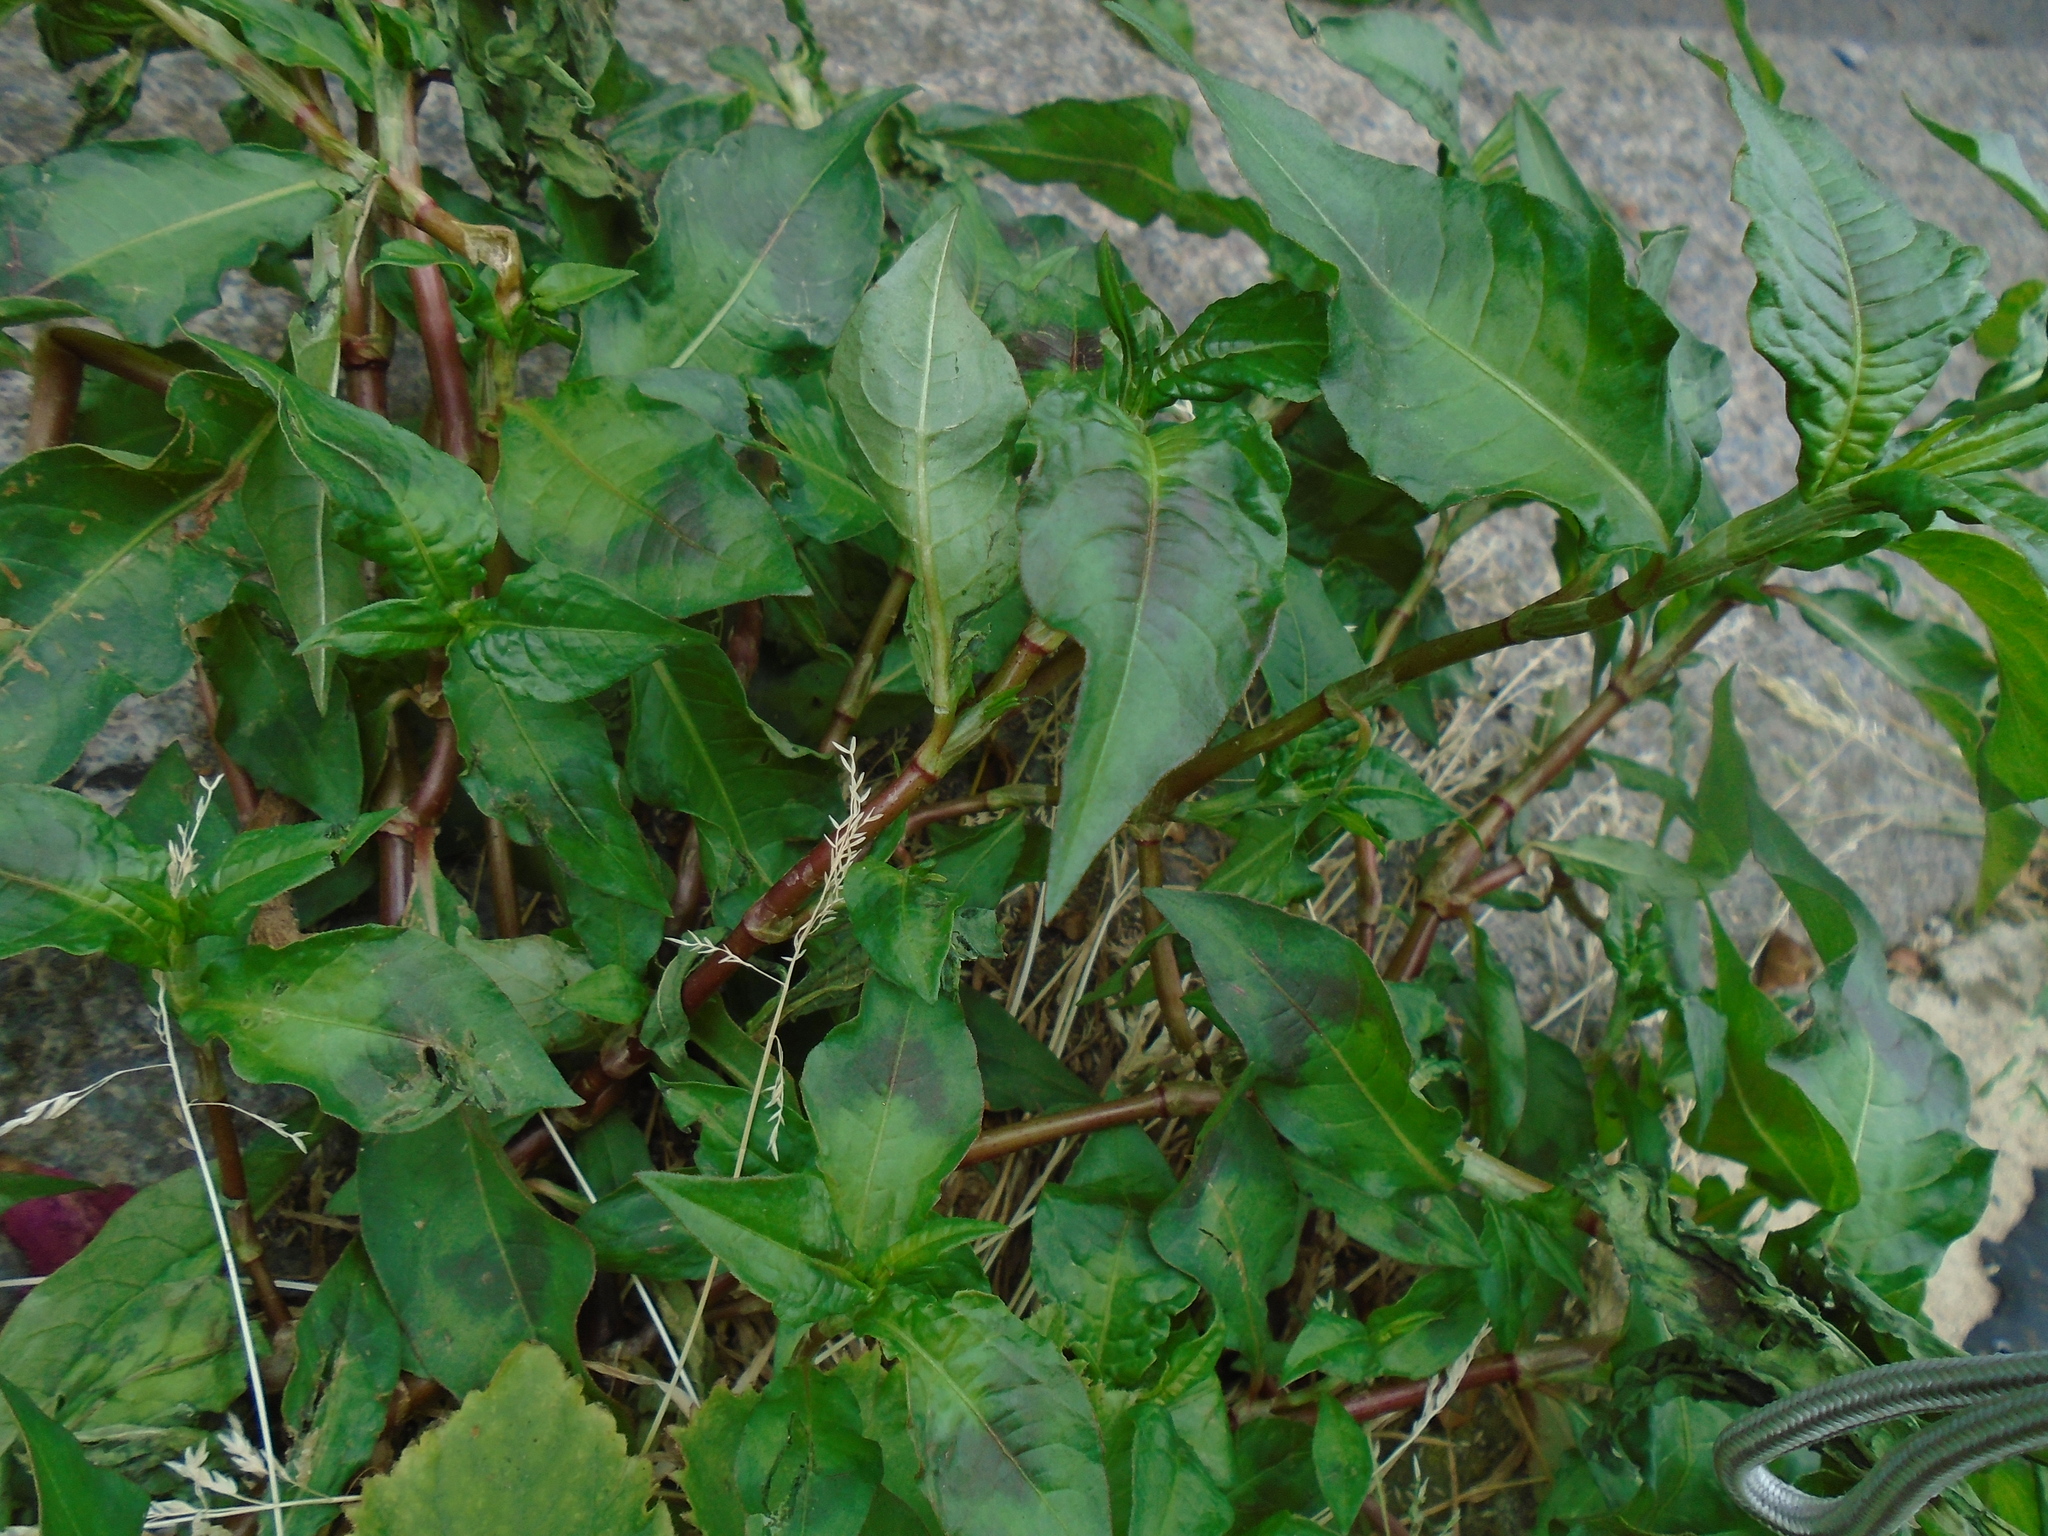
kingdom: Plantae
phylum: Tracheophyta
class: Magnoliopsida
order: Caryophyllales
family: Polygonaceae
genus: Persicaria
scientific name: Persicaria maculosa
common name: Redshank
